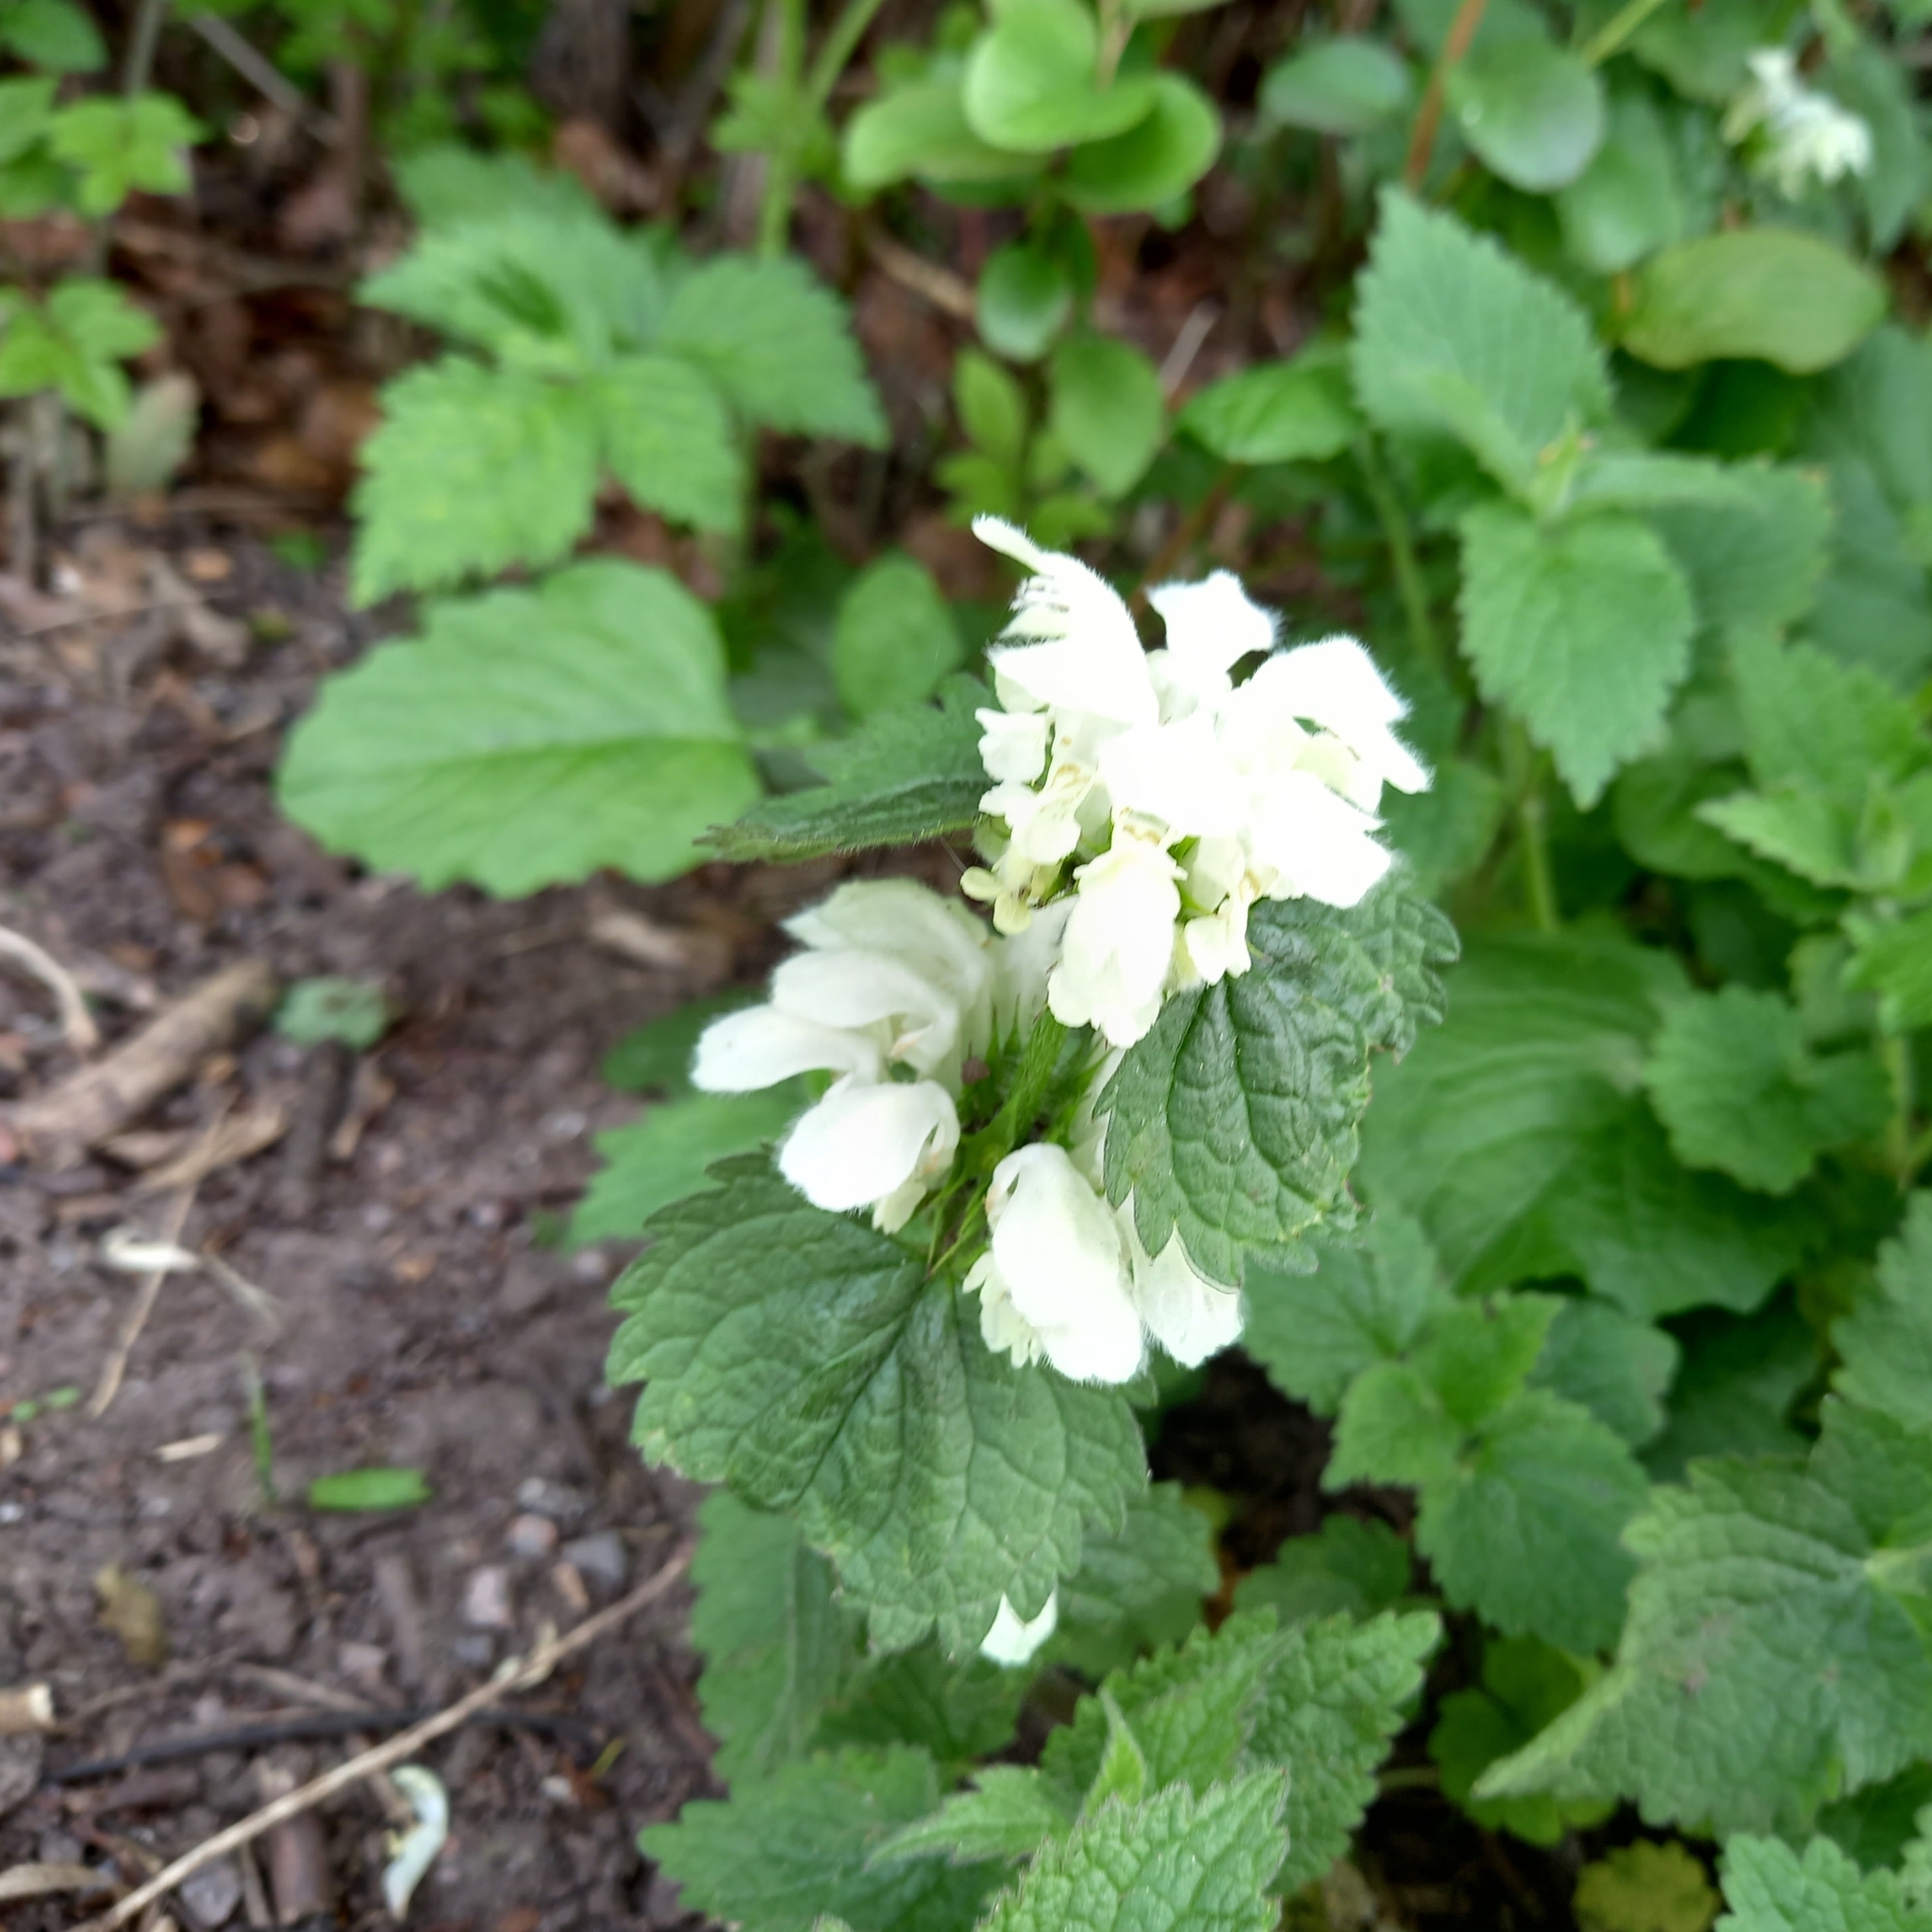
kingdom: Plantae
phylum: Tracheophyta
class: Magnoliopsida
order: Lamiales
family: Lamiaceae
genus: Lamium
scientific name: Lamium album
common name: White dead-nettle
